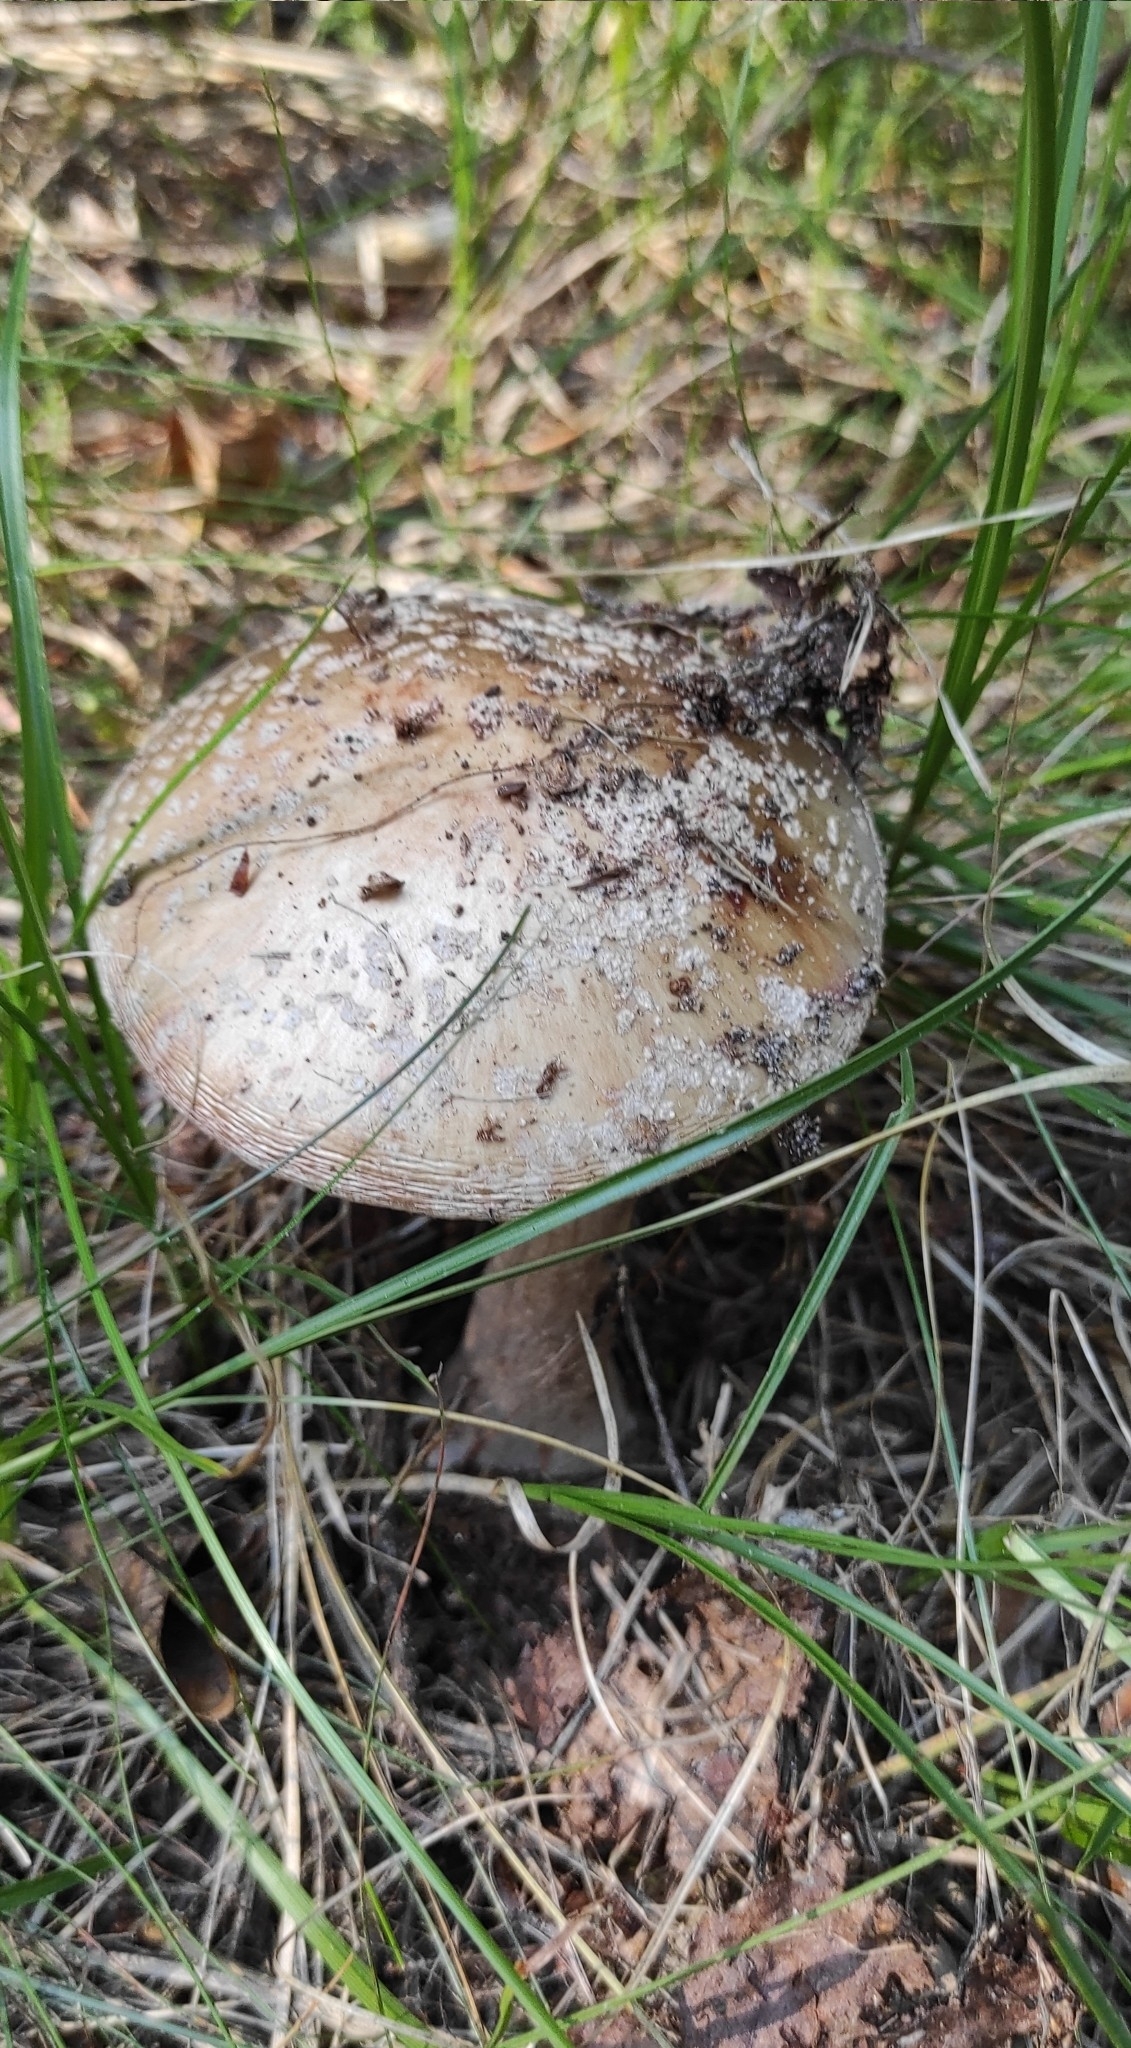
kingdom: Fungi
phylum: Basidiomycota
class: Agaricomycetes
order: Agaricales
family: Amanitaceae
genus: Amanita
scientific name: Amanita rubescens
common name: Blusher
